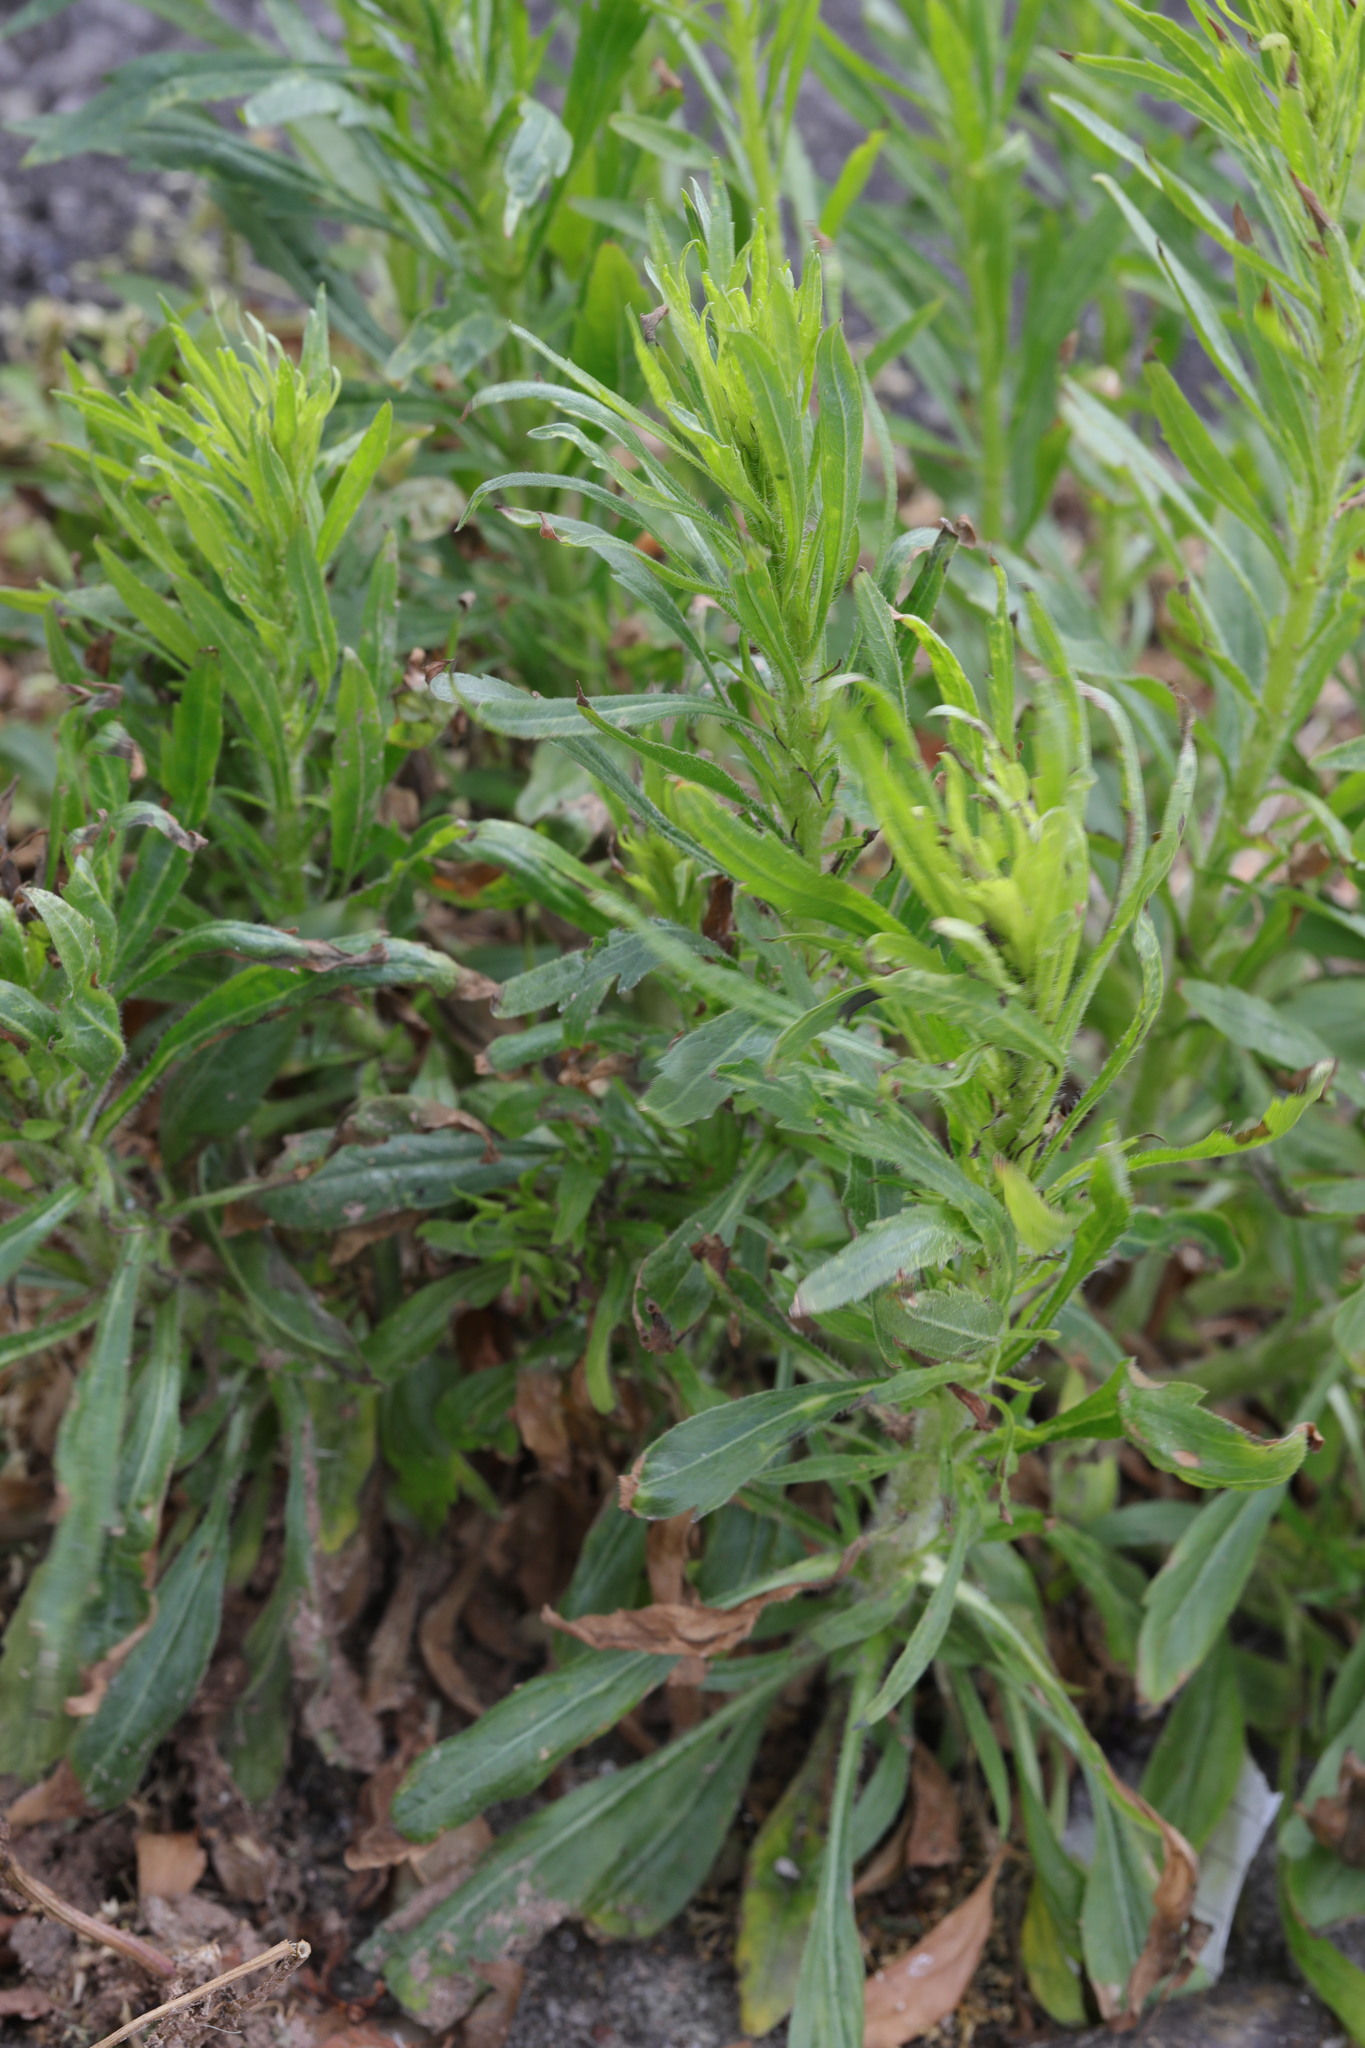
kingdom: Plantae
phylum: Tracheophyta
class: Magnoliopsida
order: Asterales
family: Asteraceae
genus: Erigeron
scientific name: Erigeron canadensis
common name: Canadian fleabane
